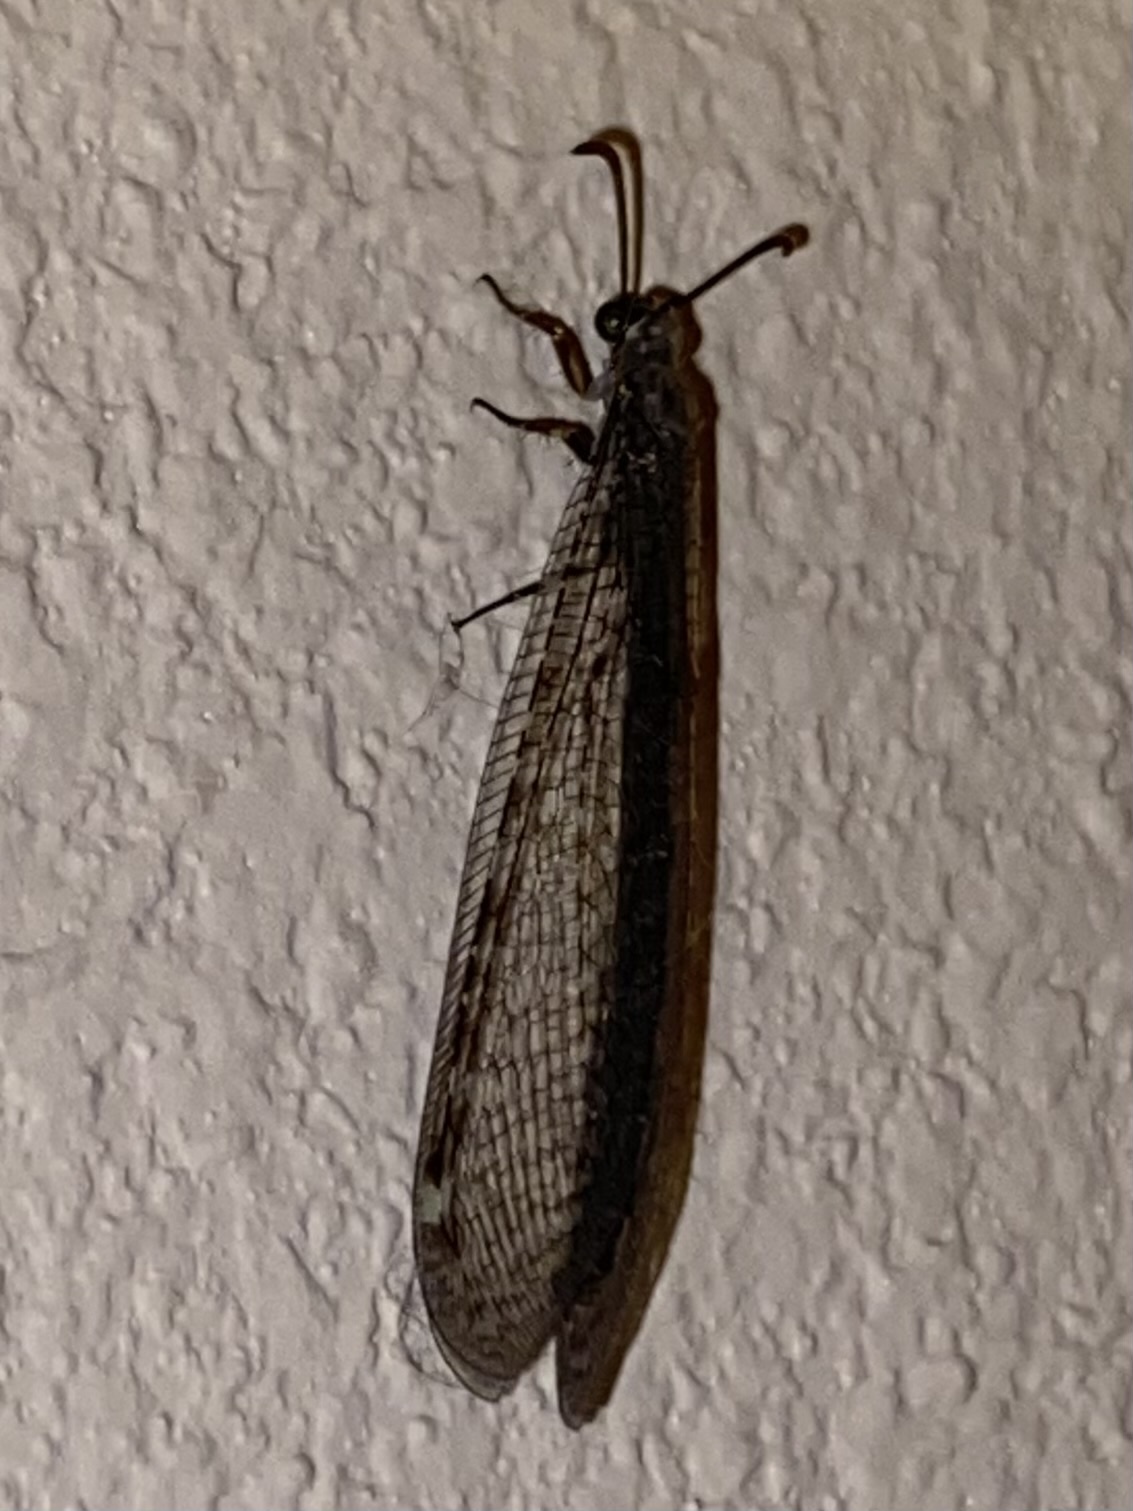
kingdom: Animalia
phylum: Arthropoda
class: Insecta
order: Neuroptera
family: Myrmeleontidae
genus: Myrmeleon
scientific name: Myrmeleon
